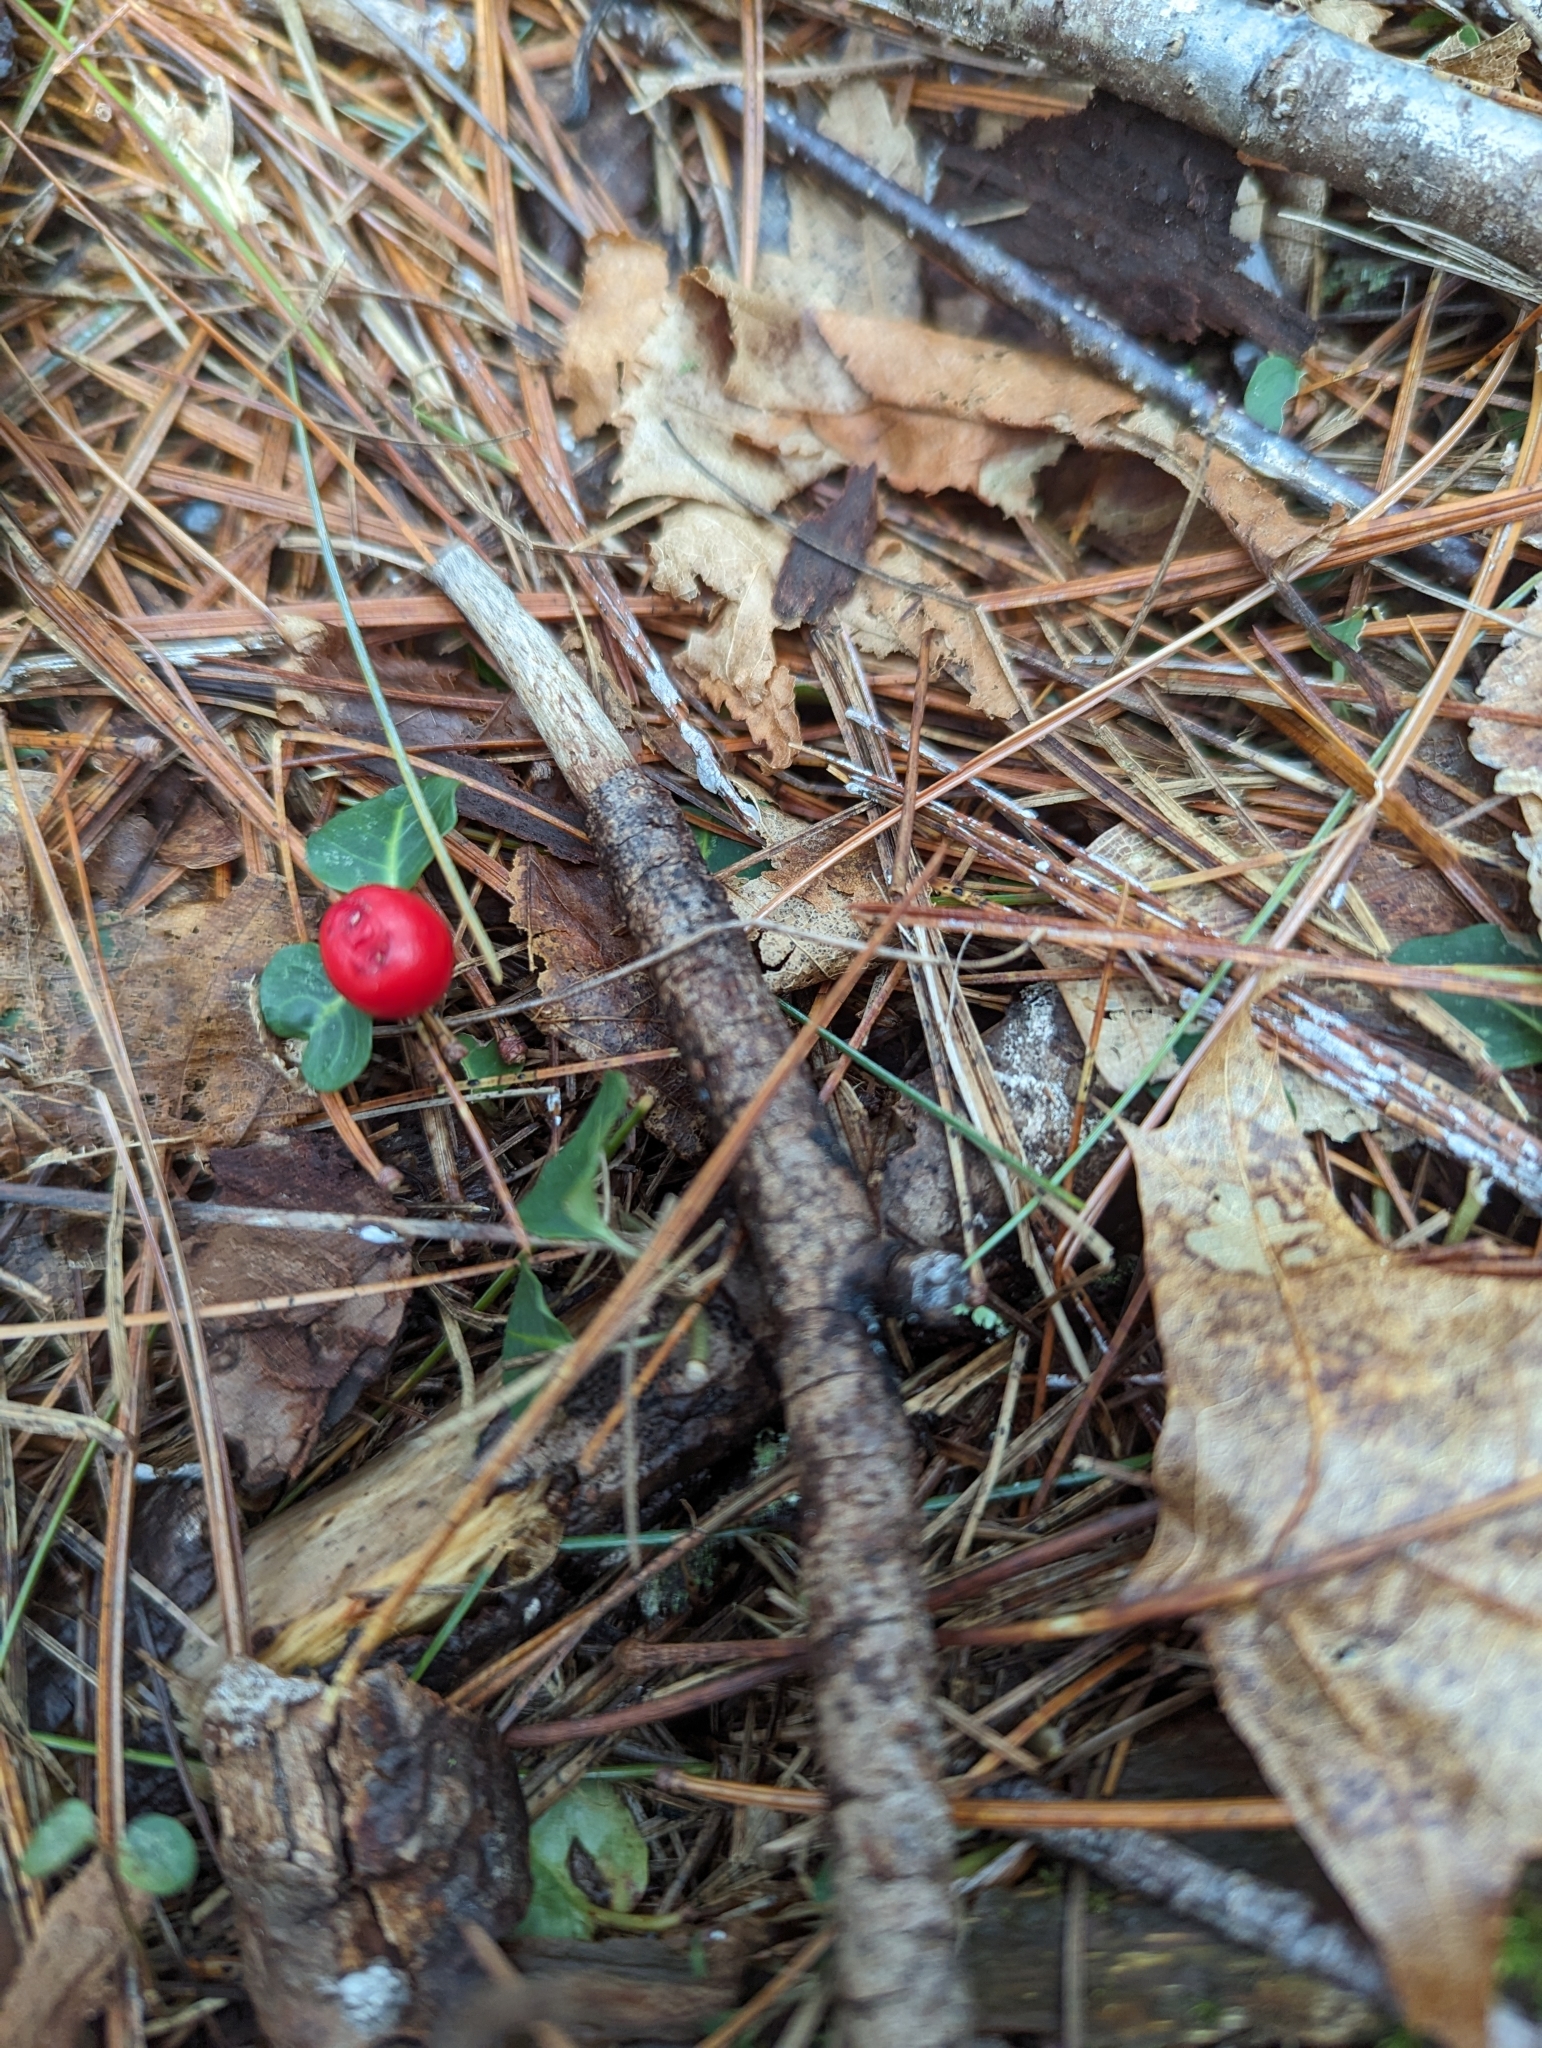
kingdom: Plantae
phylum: Tracheophyta
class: Magnoliopsida
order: Gentianales
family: Rubiaceae
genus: Mitchella
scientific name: Mitchella repens
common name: Partridge-berry
